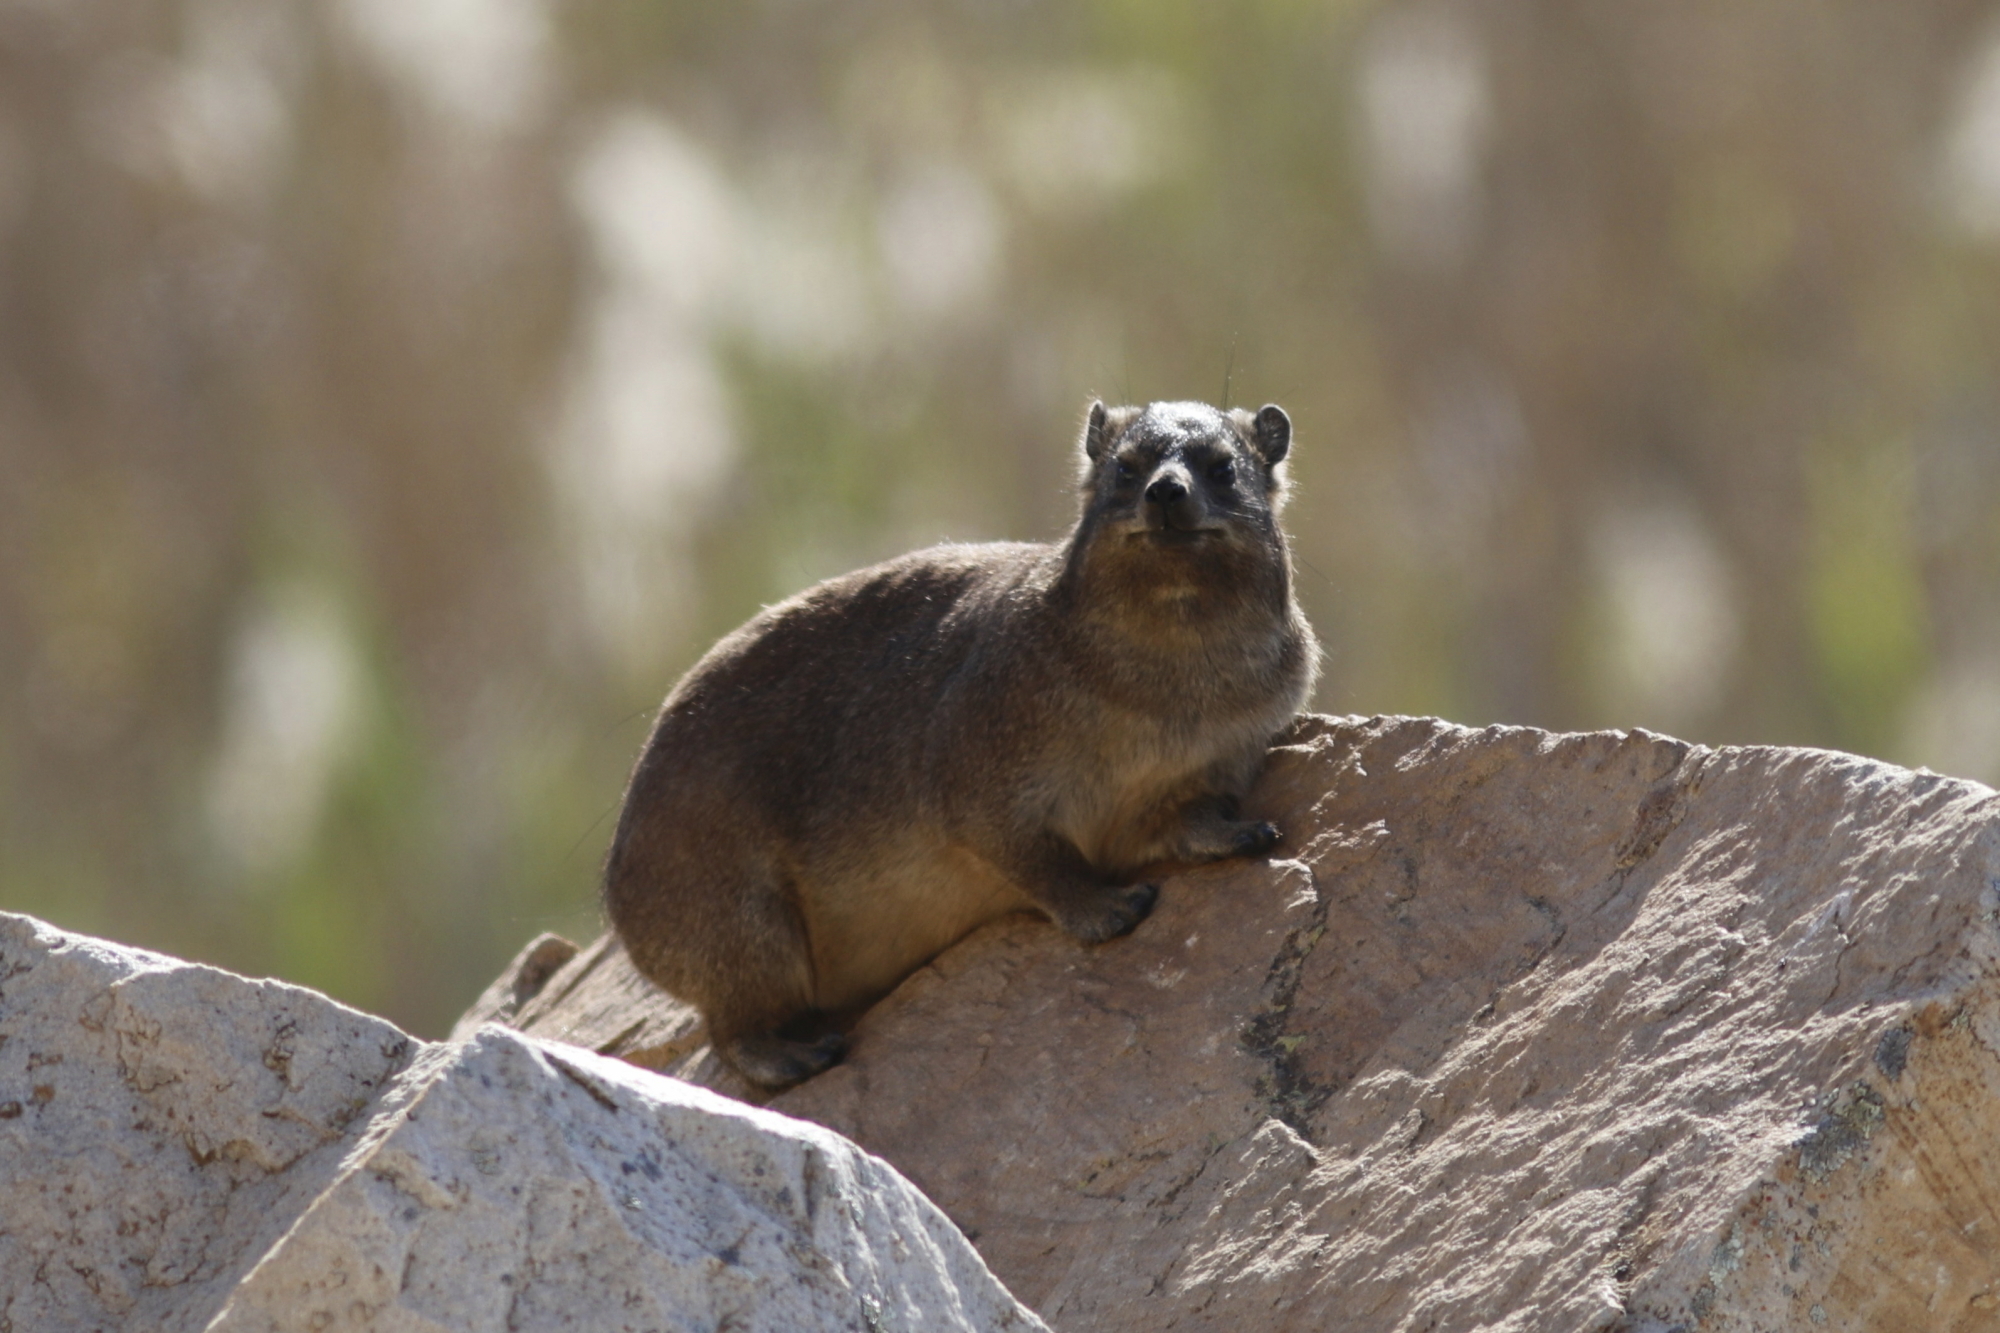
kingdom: Animalia
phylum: Chordata
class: Mammalia
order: Hyracoidea
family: Procaviidae
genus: Procavia
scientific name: Procavia capensis
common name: Rock hyrax
